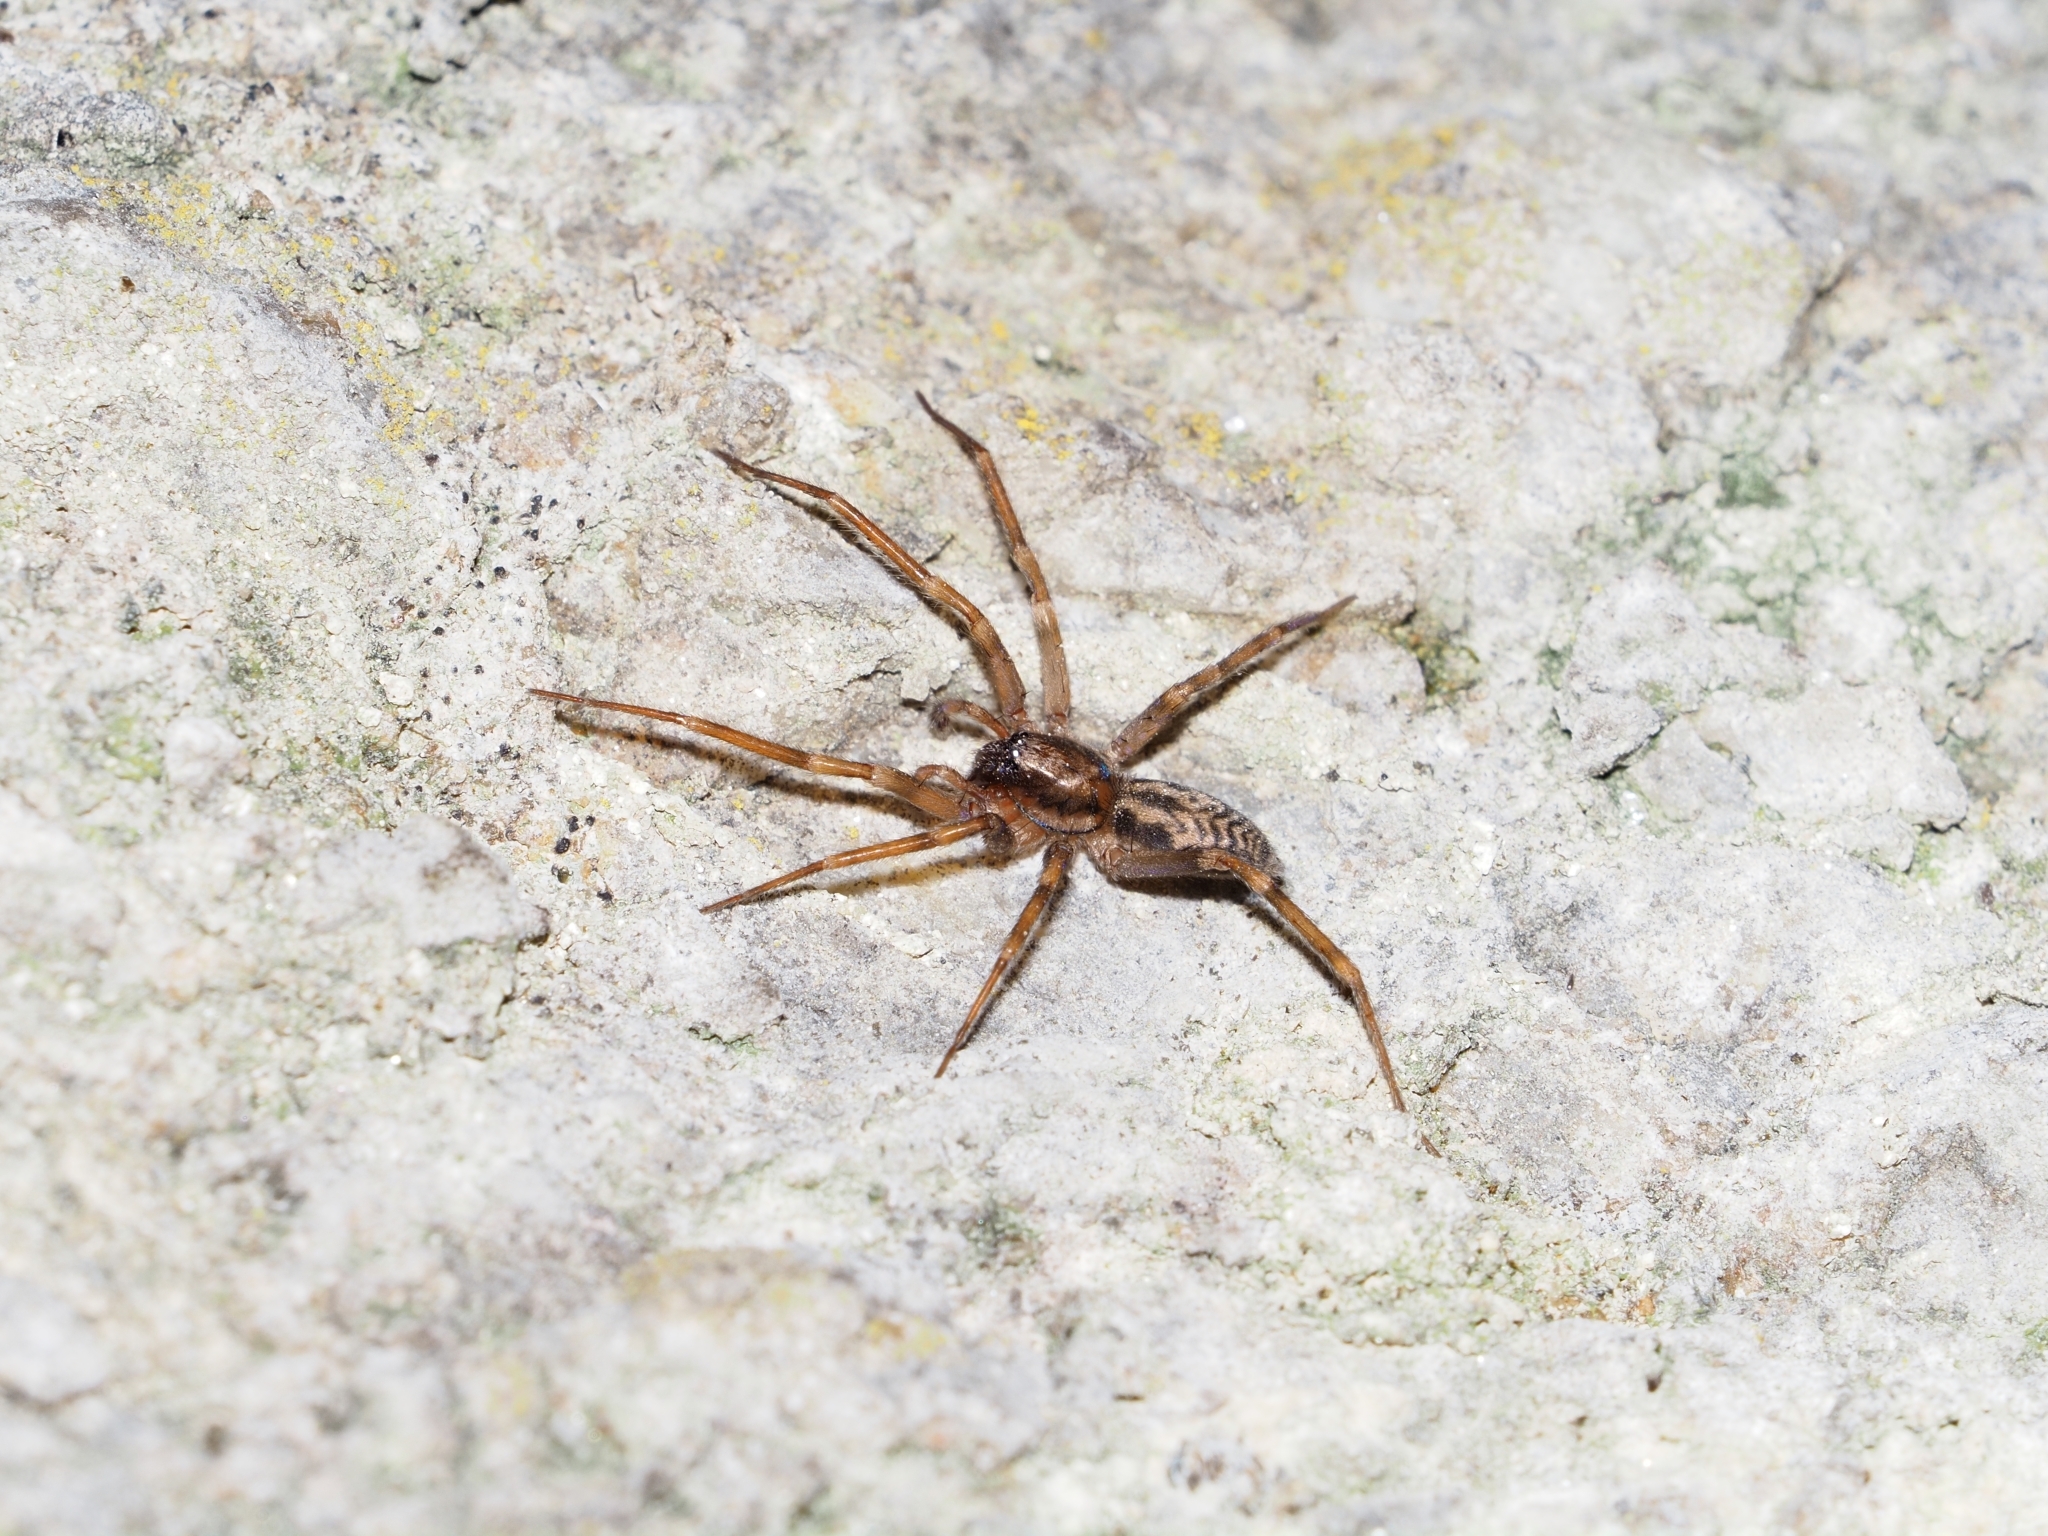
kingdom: Animalia
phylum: Arthropoda
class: Arachnida
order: Araneae
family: Liocranidae
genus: Liocranum
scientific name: Liocranum rupicola
